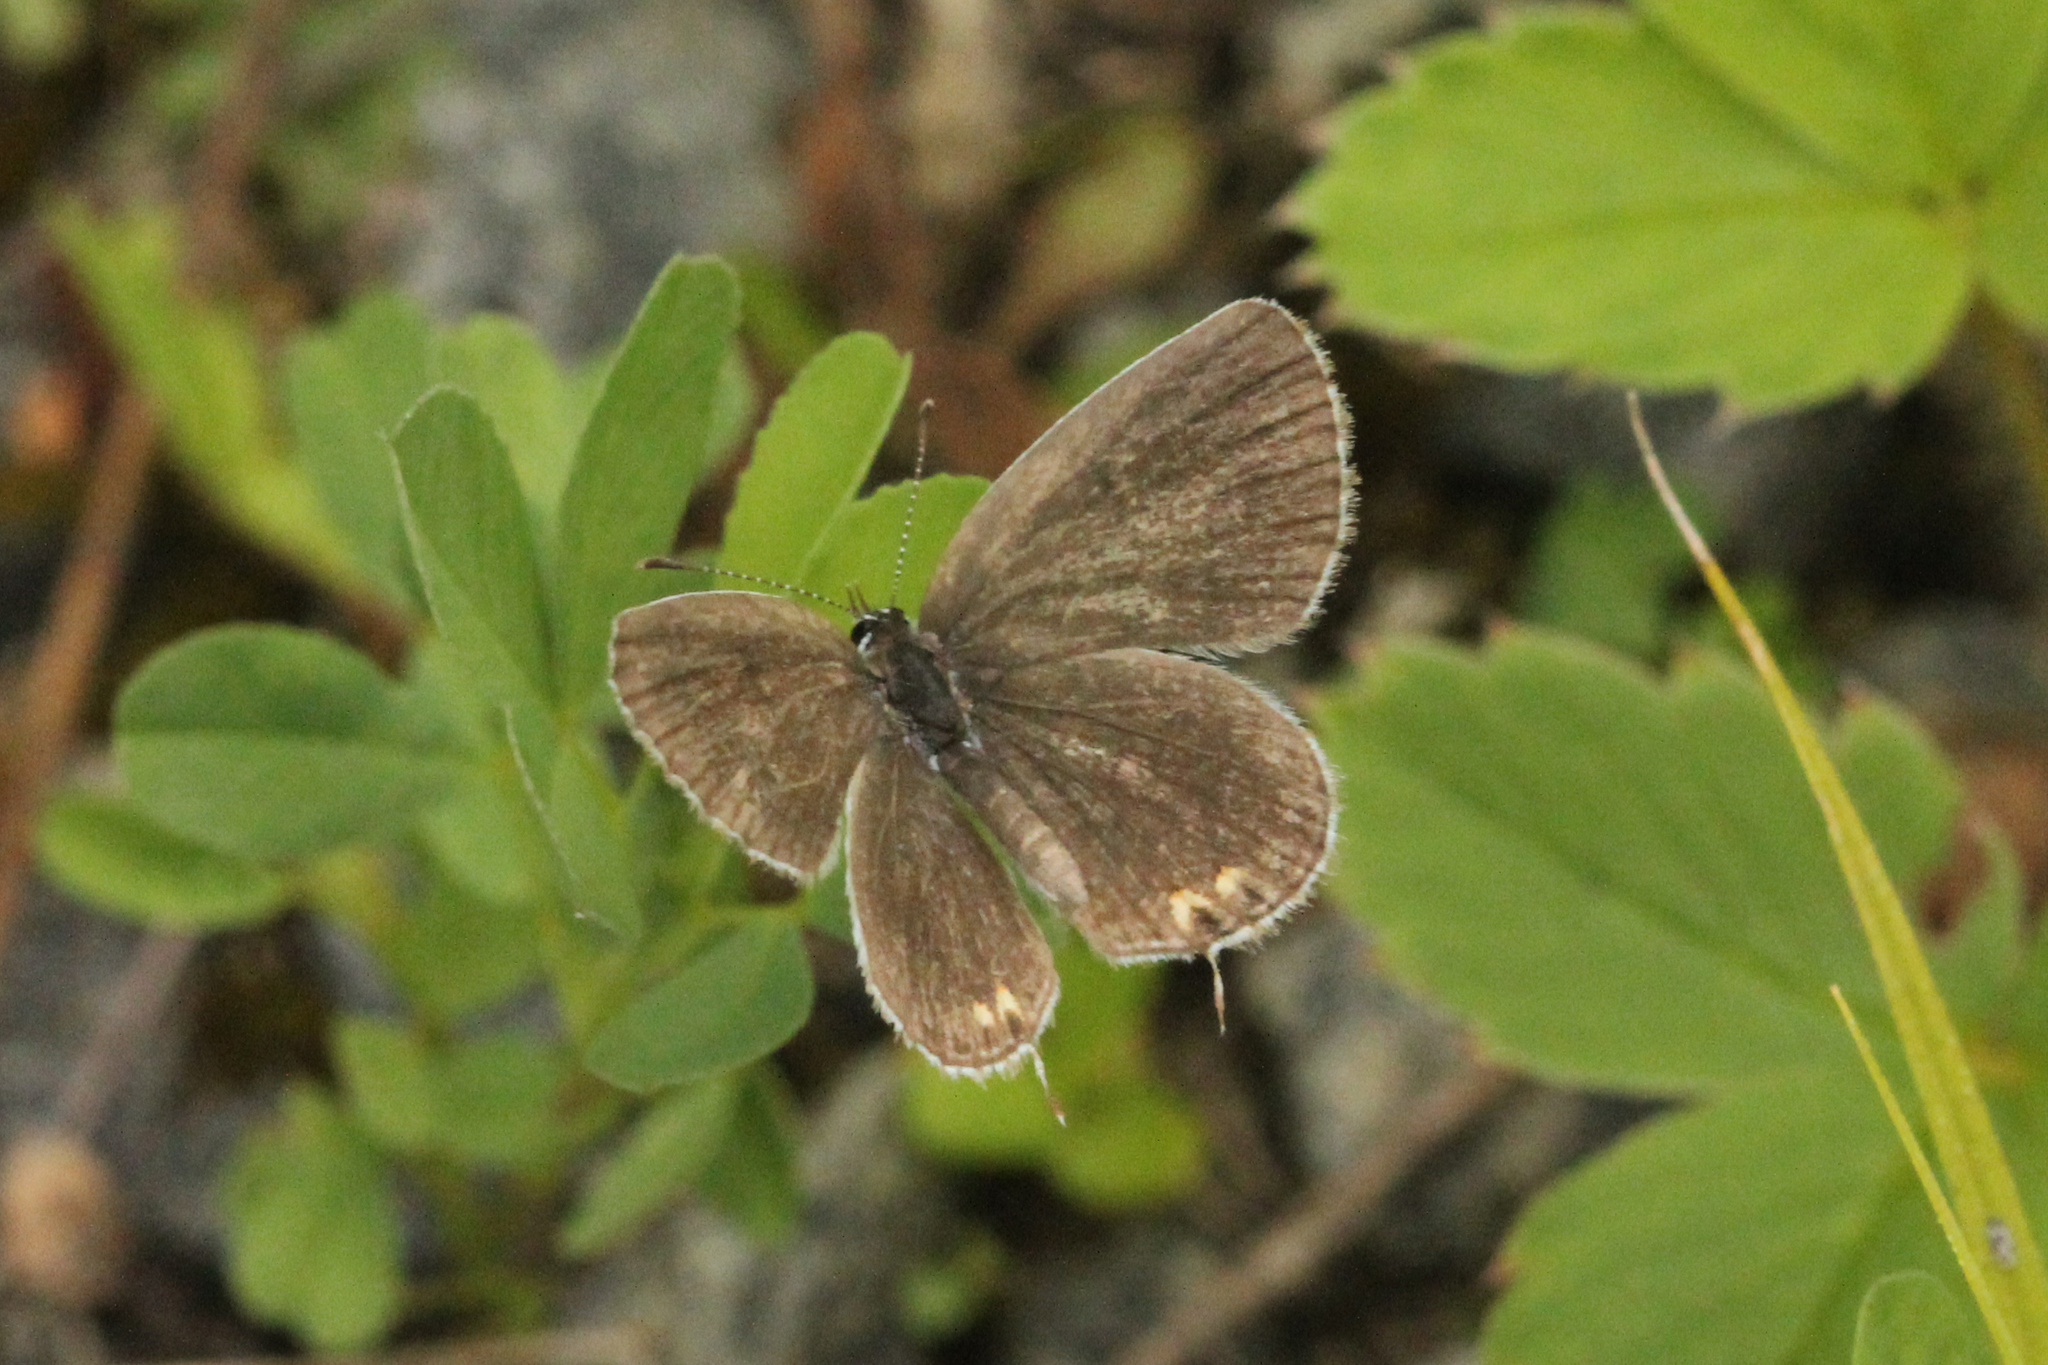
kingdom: Animalia
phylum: Arthropoda
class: Insecta
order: Lepidoptera
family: Lycaenidae
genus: Elkalyce
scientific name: Elkalyce comyntas
